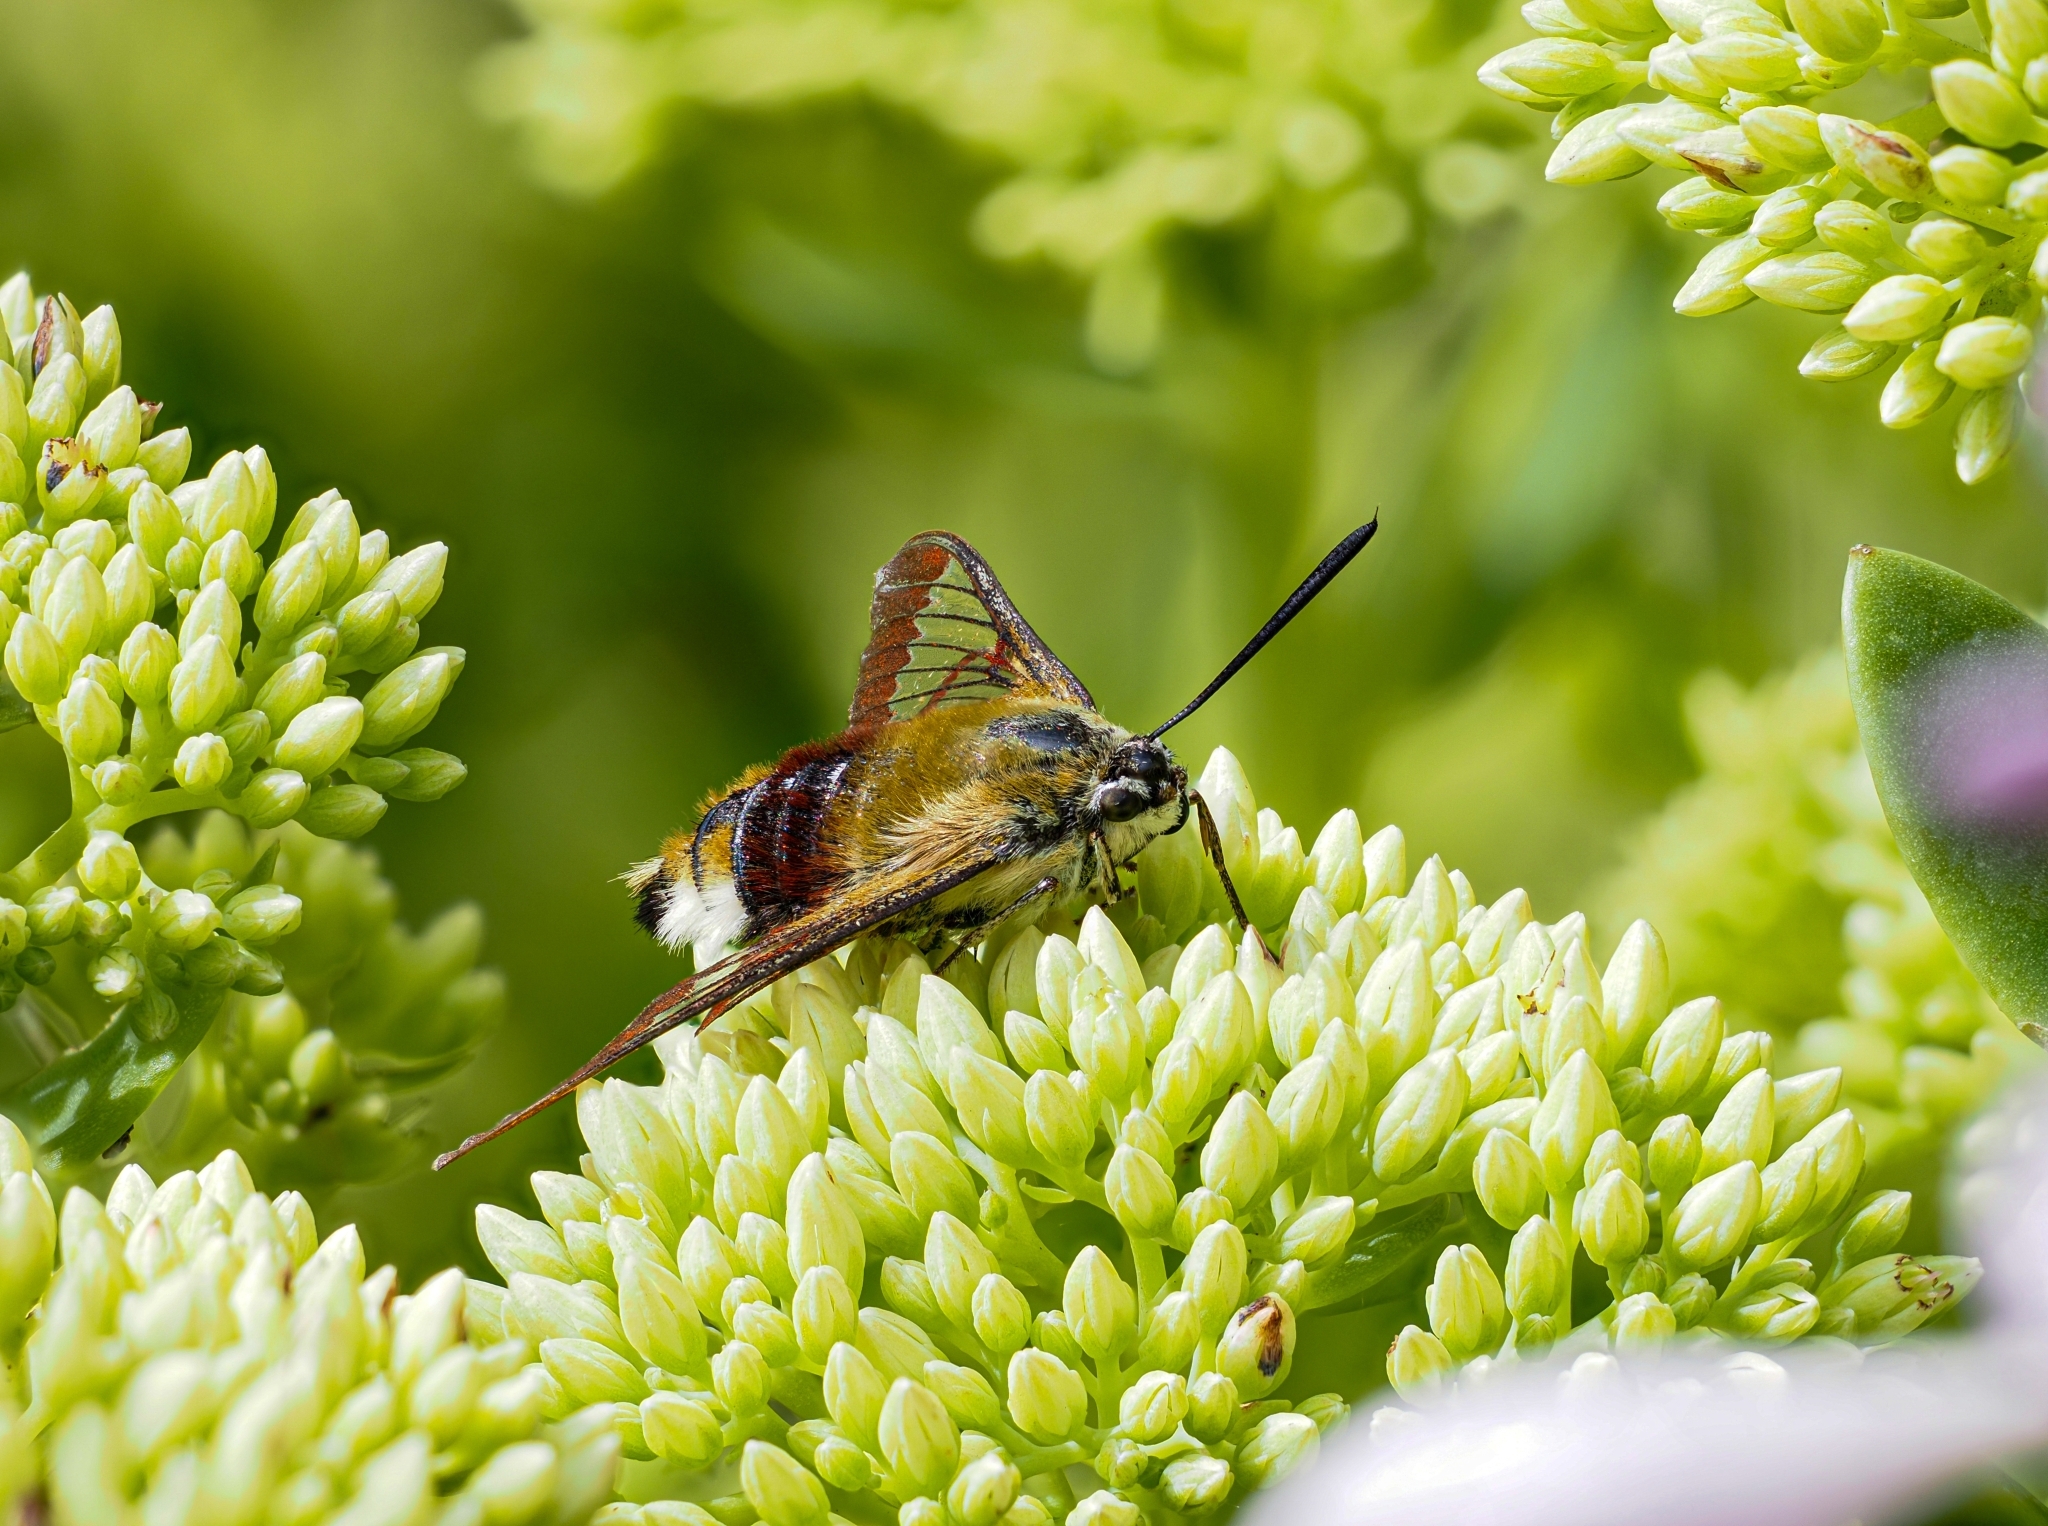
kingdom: Animalia
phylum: Arthropoda
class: Insecta
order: Lepidoptera
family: Sphingidae
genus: Hemaris
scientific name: Hemaris fuciformis
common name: Broad-bordered bee hawk-moth
